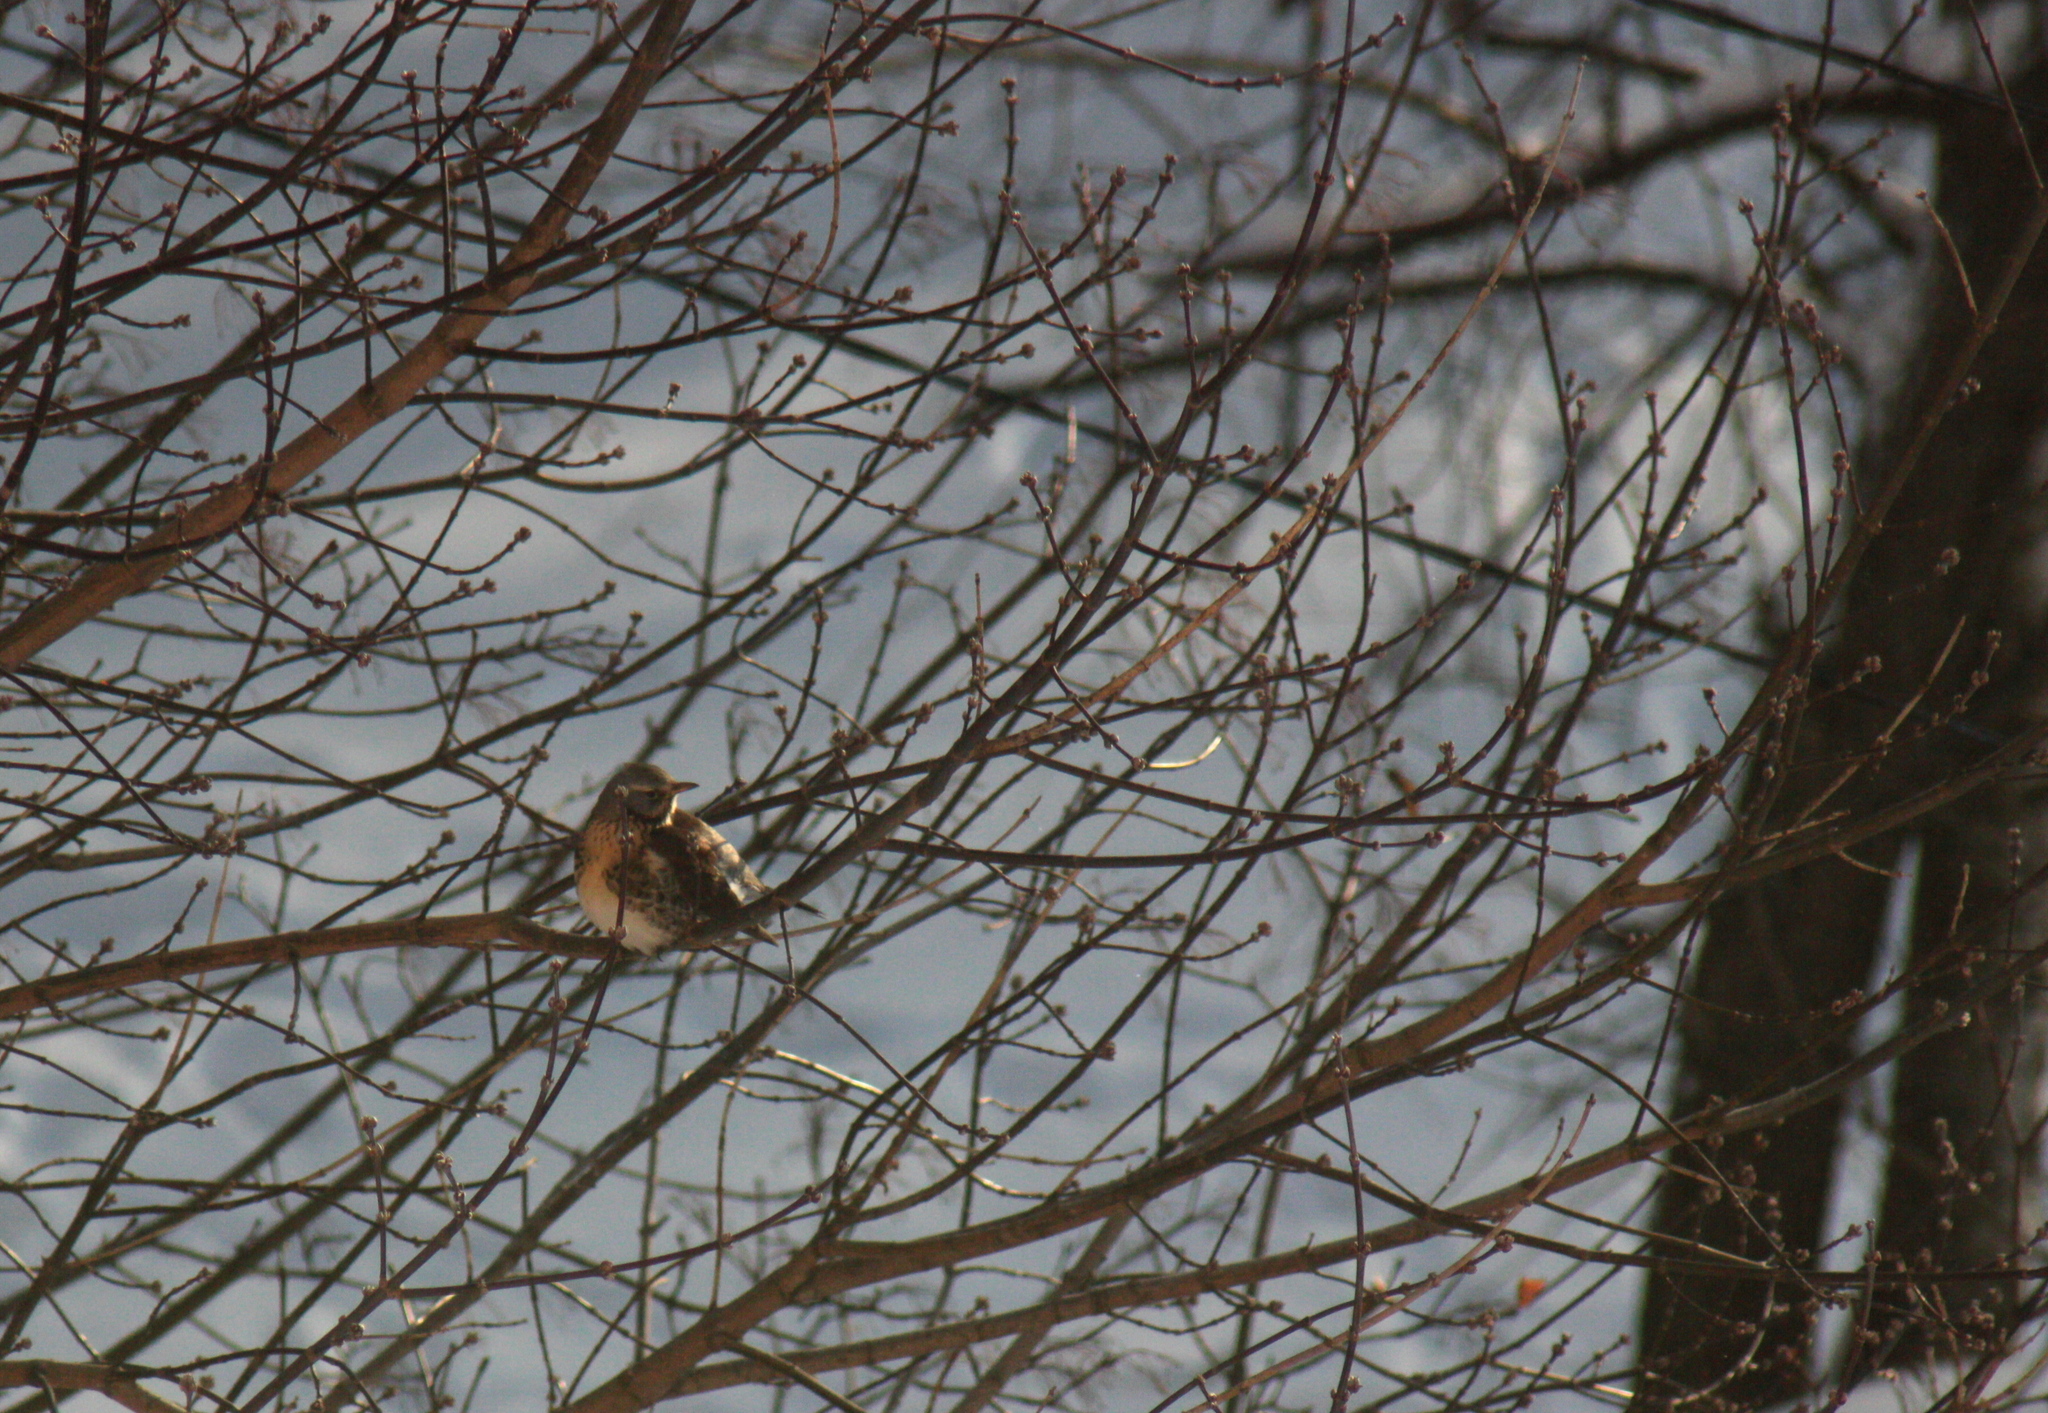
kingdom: Animalia
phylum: Chordata
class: Aves
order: Passeriformes
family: Turdidae
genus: Turdus
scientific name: Turdus pilaris
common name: Fieldfare
